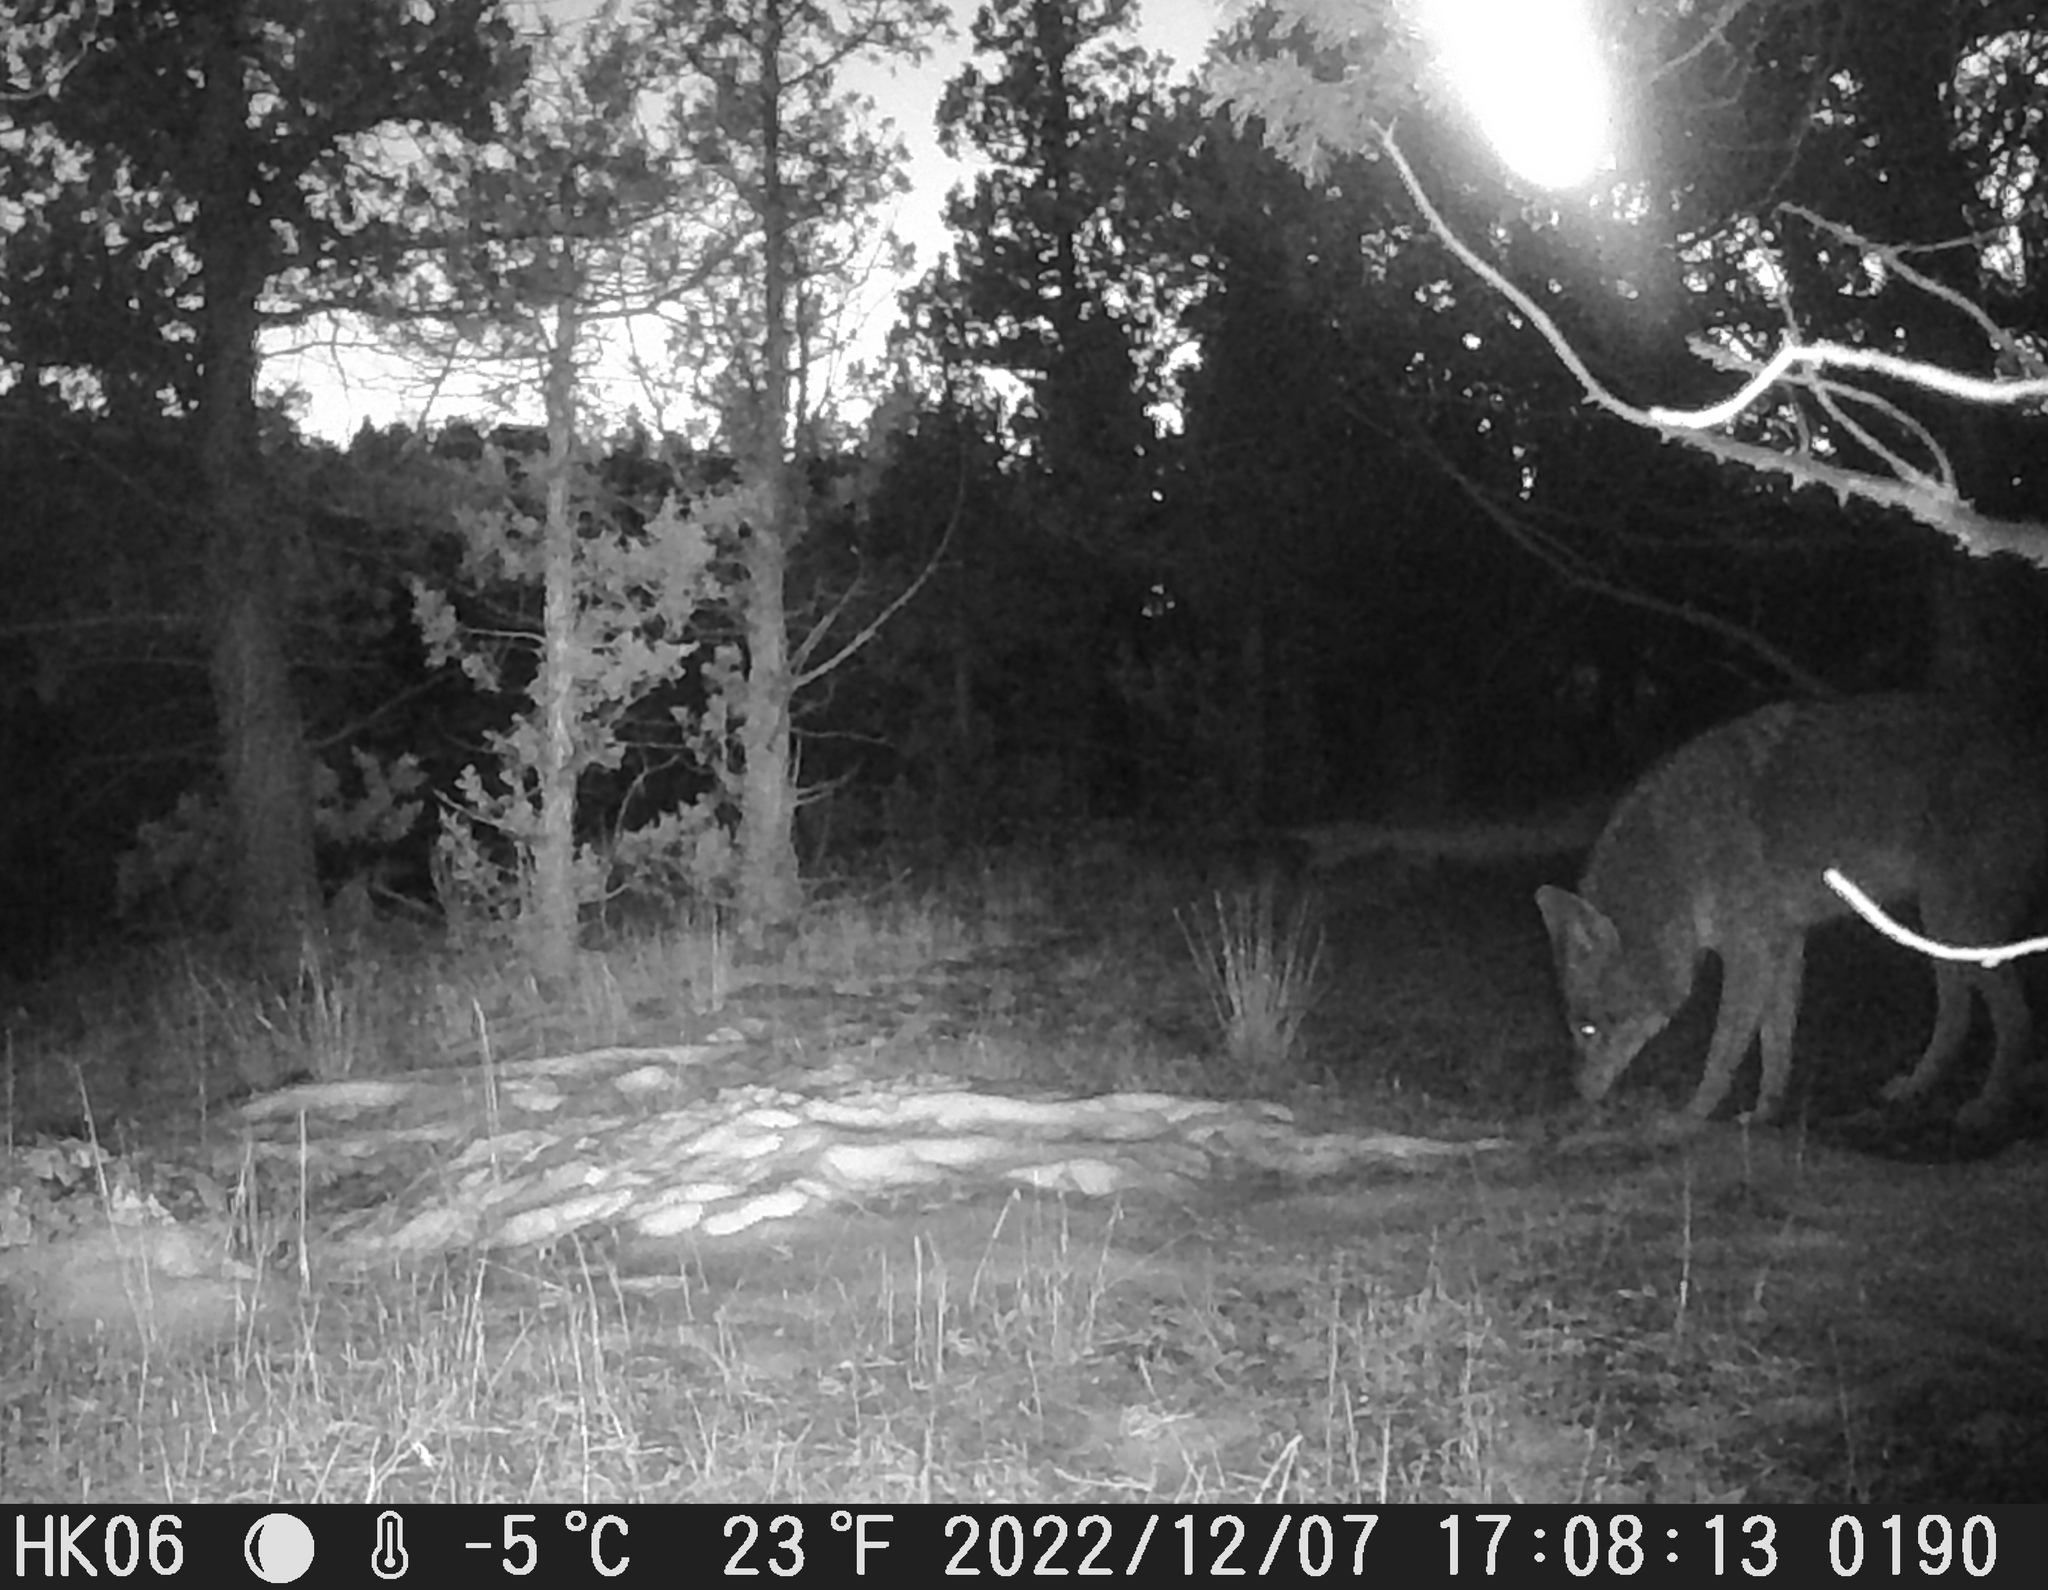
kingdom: Animalia
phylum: Chordata
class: Mammalia
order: Carnivora
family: Canidae
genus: Canis
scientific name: Canis latrans
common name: Coyote
